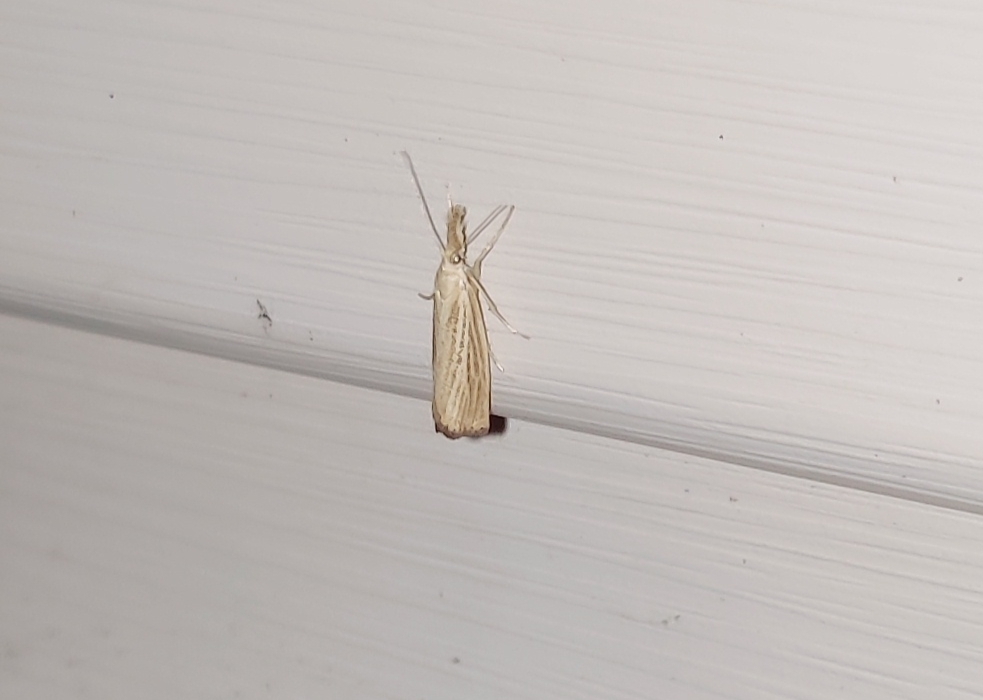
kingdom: Animalia
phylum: Arthropoda
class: Insecta
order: Lepidoptera
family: Crambidae
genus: Agriphila
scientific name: Agriphila straminella
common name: Straw grass-veneer
